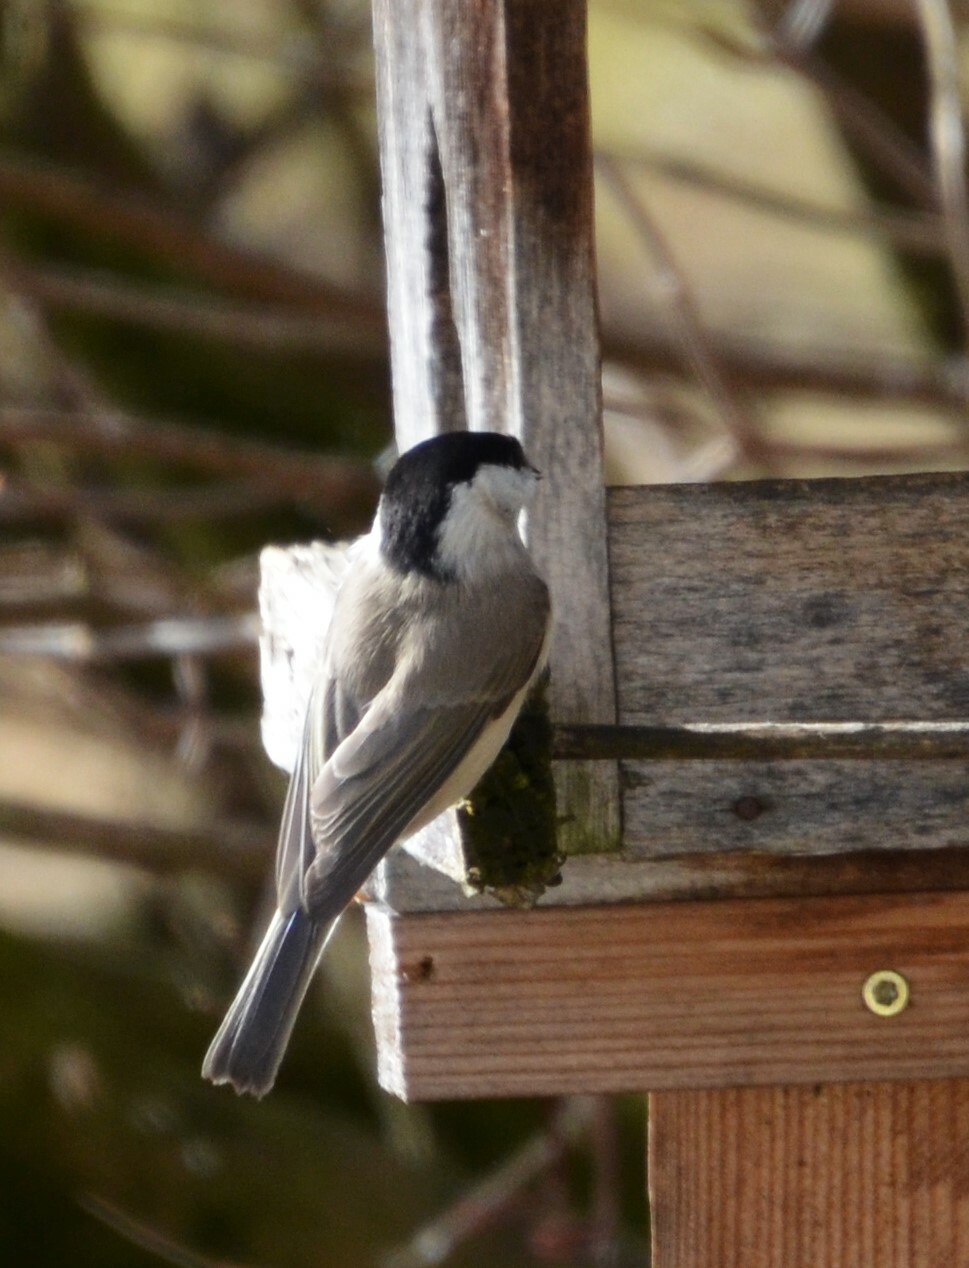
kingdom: Animalia
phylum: Chordata
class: Aves
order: Passeriformes
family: Paridae
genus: Poecile
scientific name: Poecile palustris
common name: Marsh tit
